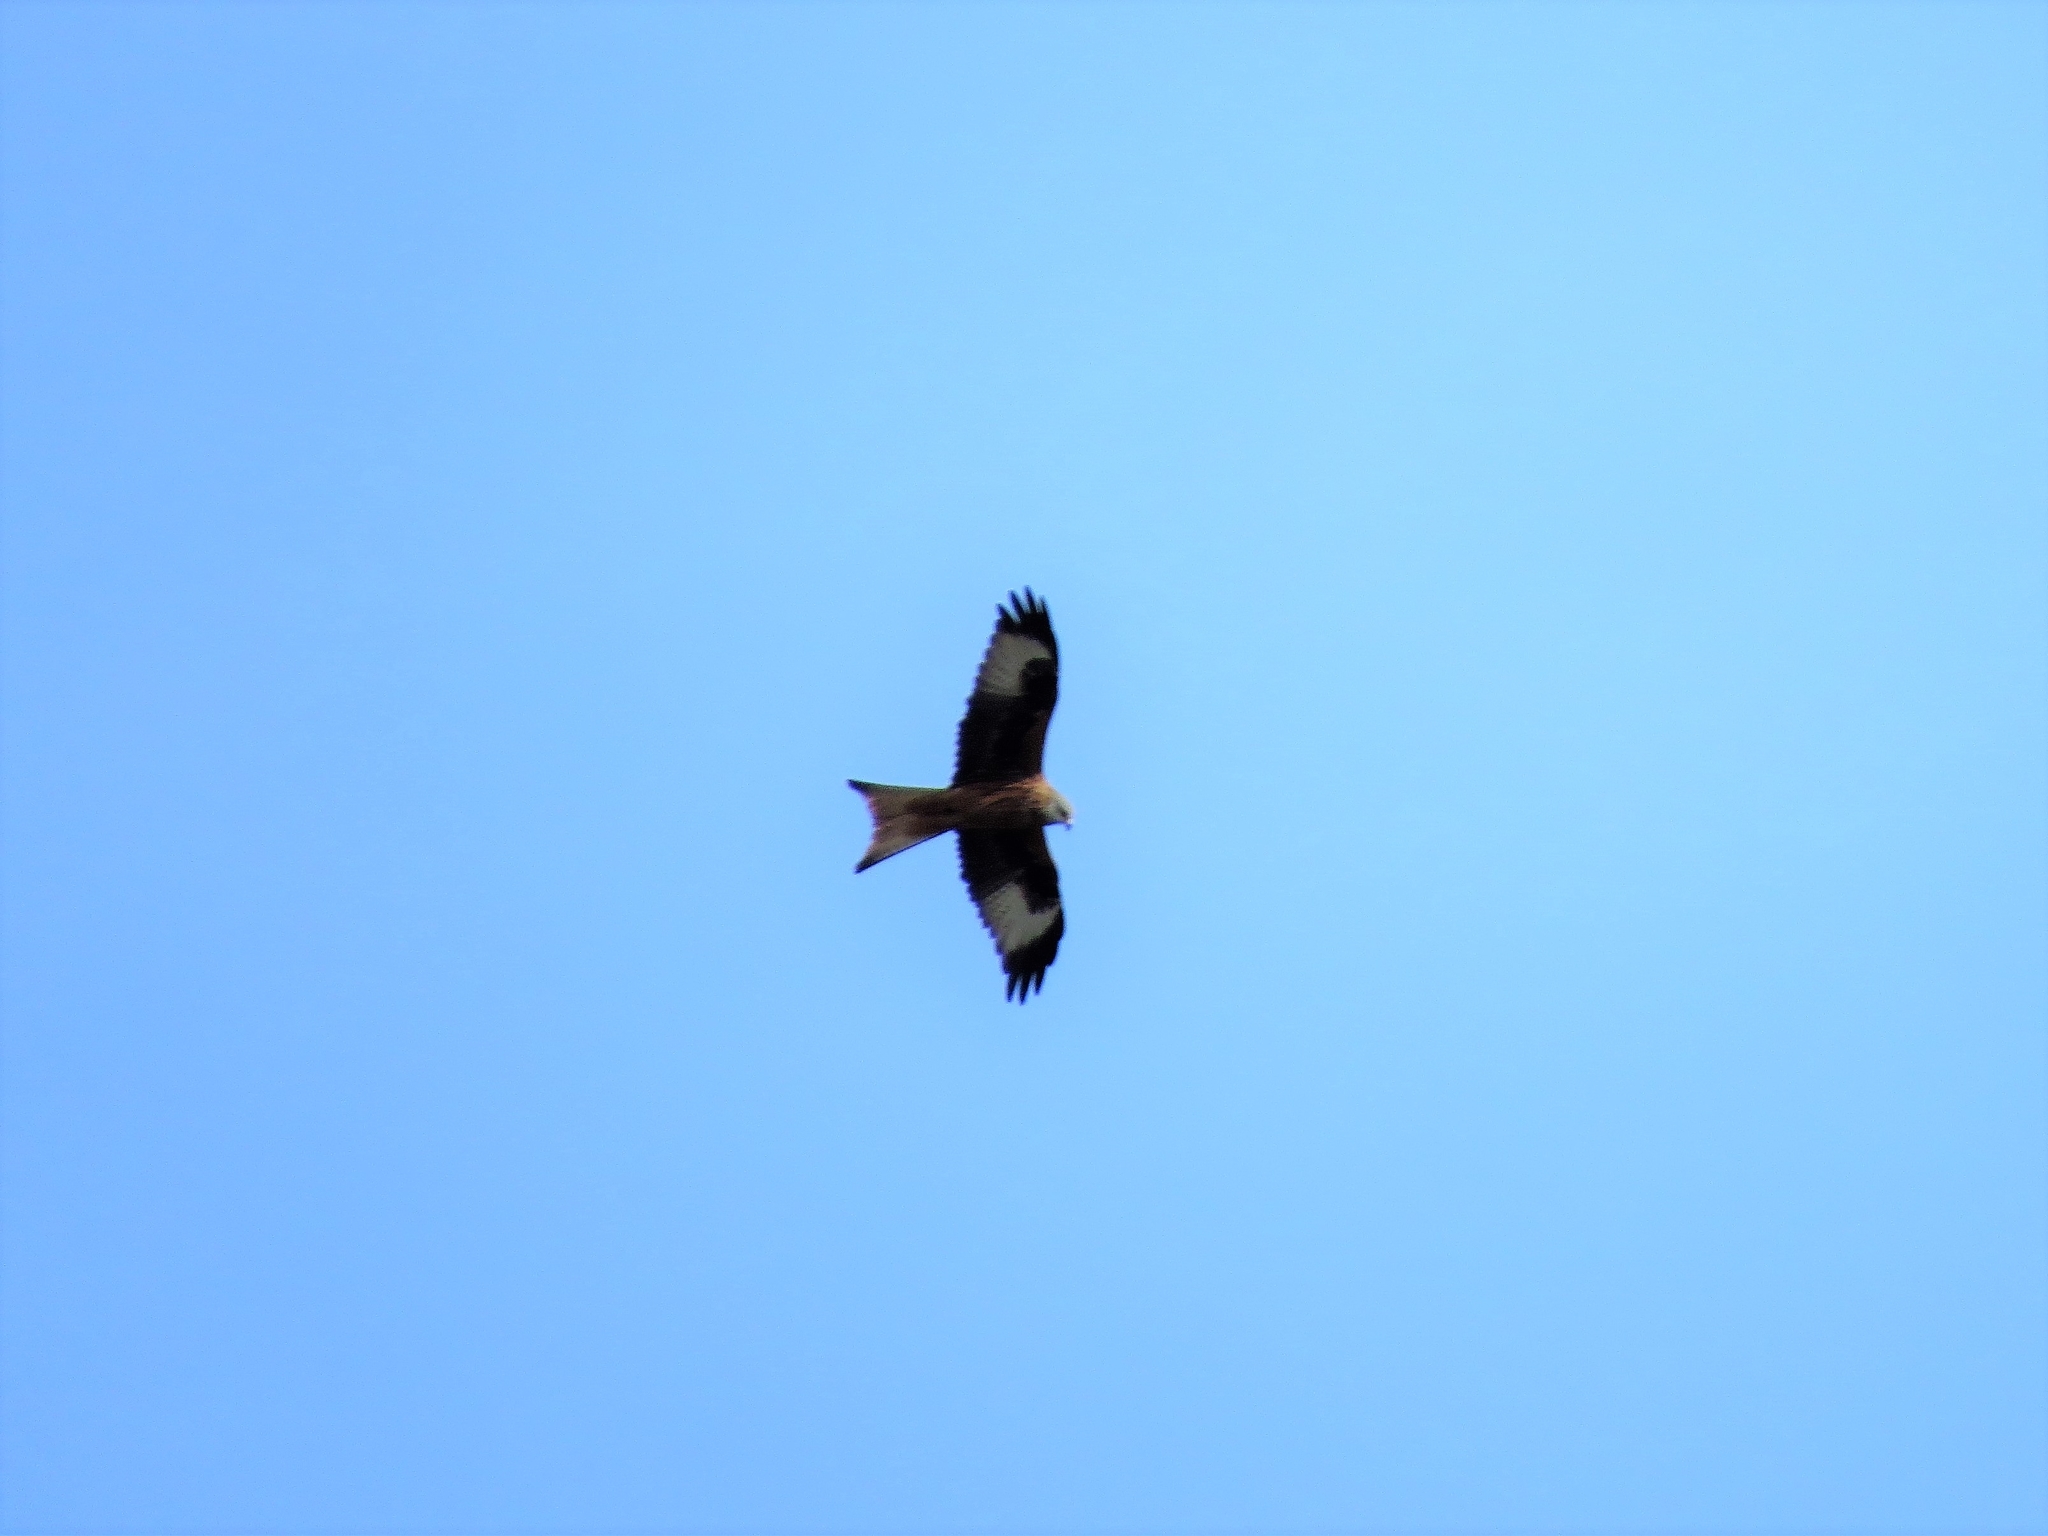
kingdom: Animalia
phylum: Chordata
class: Aves
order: Accipitriformes
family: Accipitridae
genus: Milvus
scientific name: Milvus milvus
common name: Red kite
